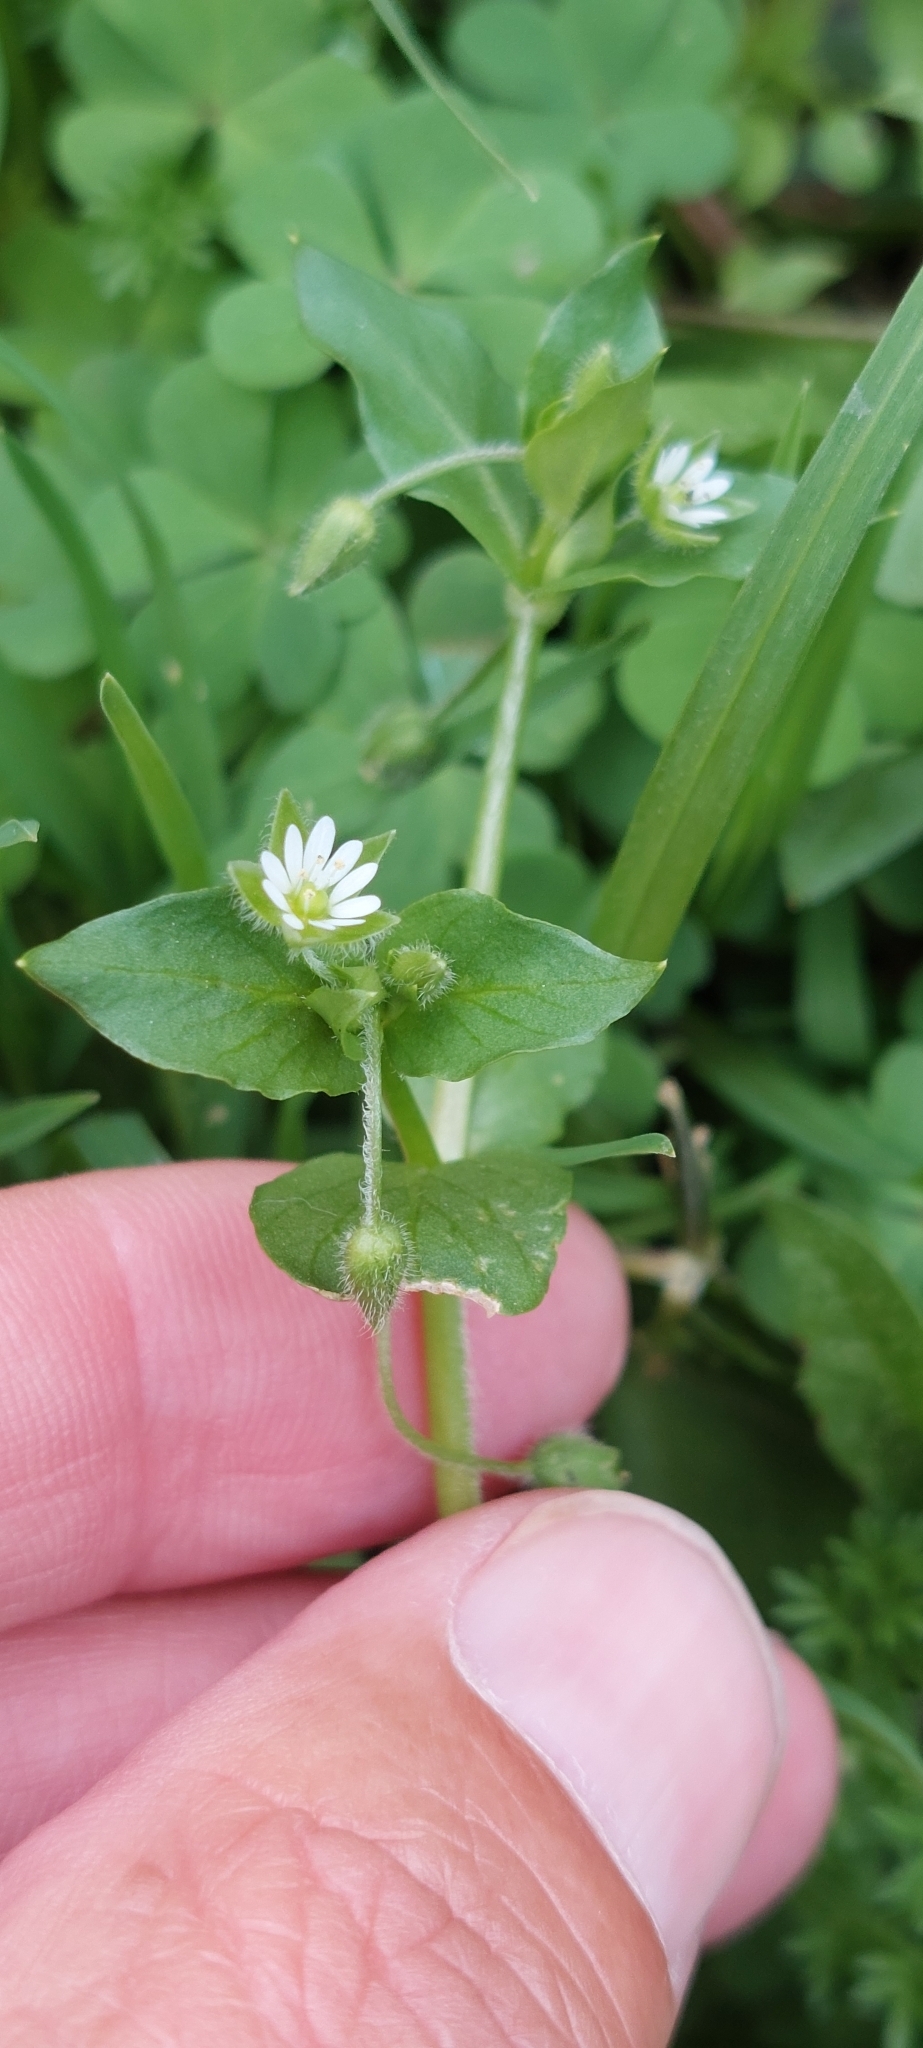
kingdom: Plantae
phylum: Tracheophyta
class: Magnoliopsida
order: Caryophyllales
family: Caryophyllaceae
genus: Stellaria
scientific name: Stellaria media
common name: Common chickweed
